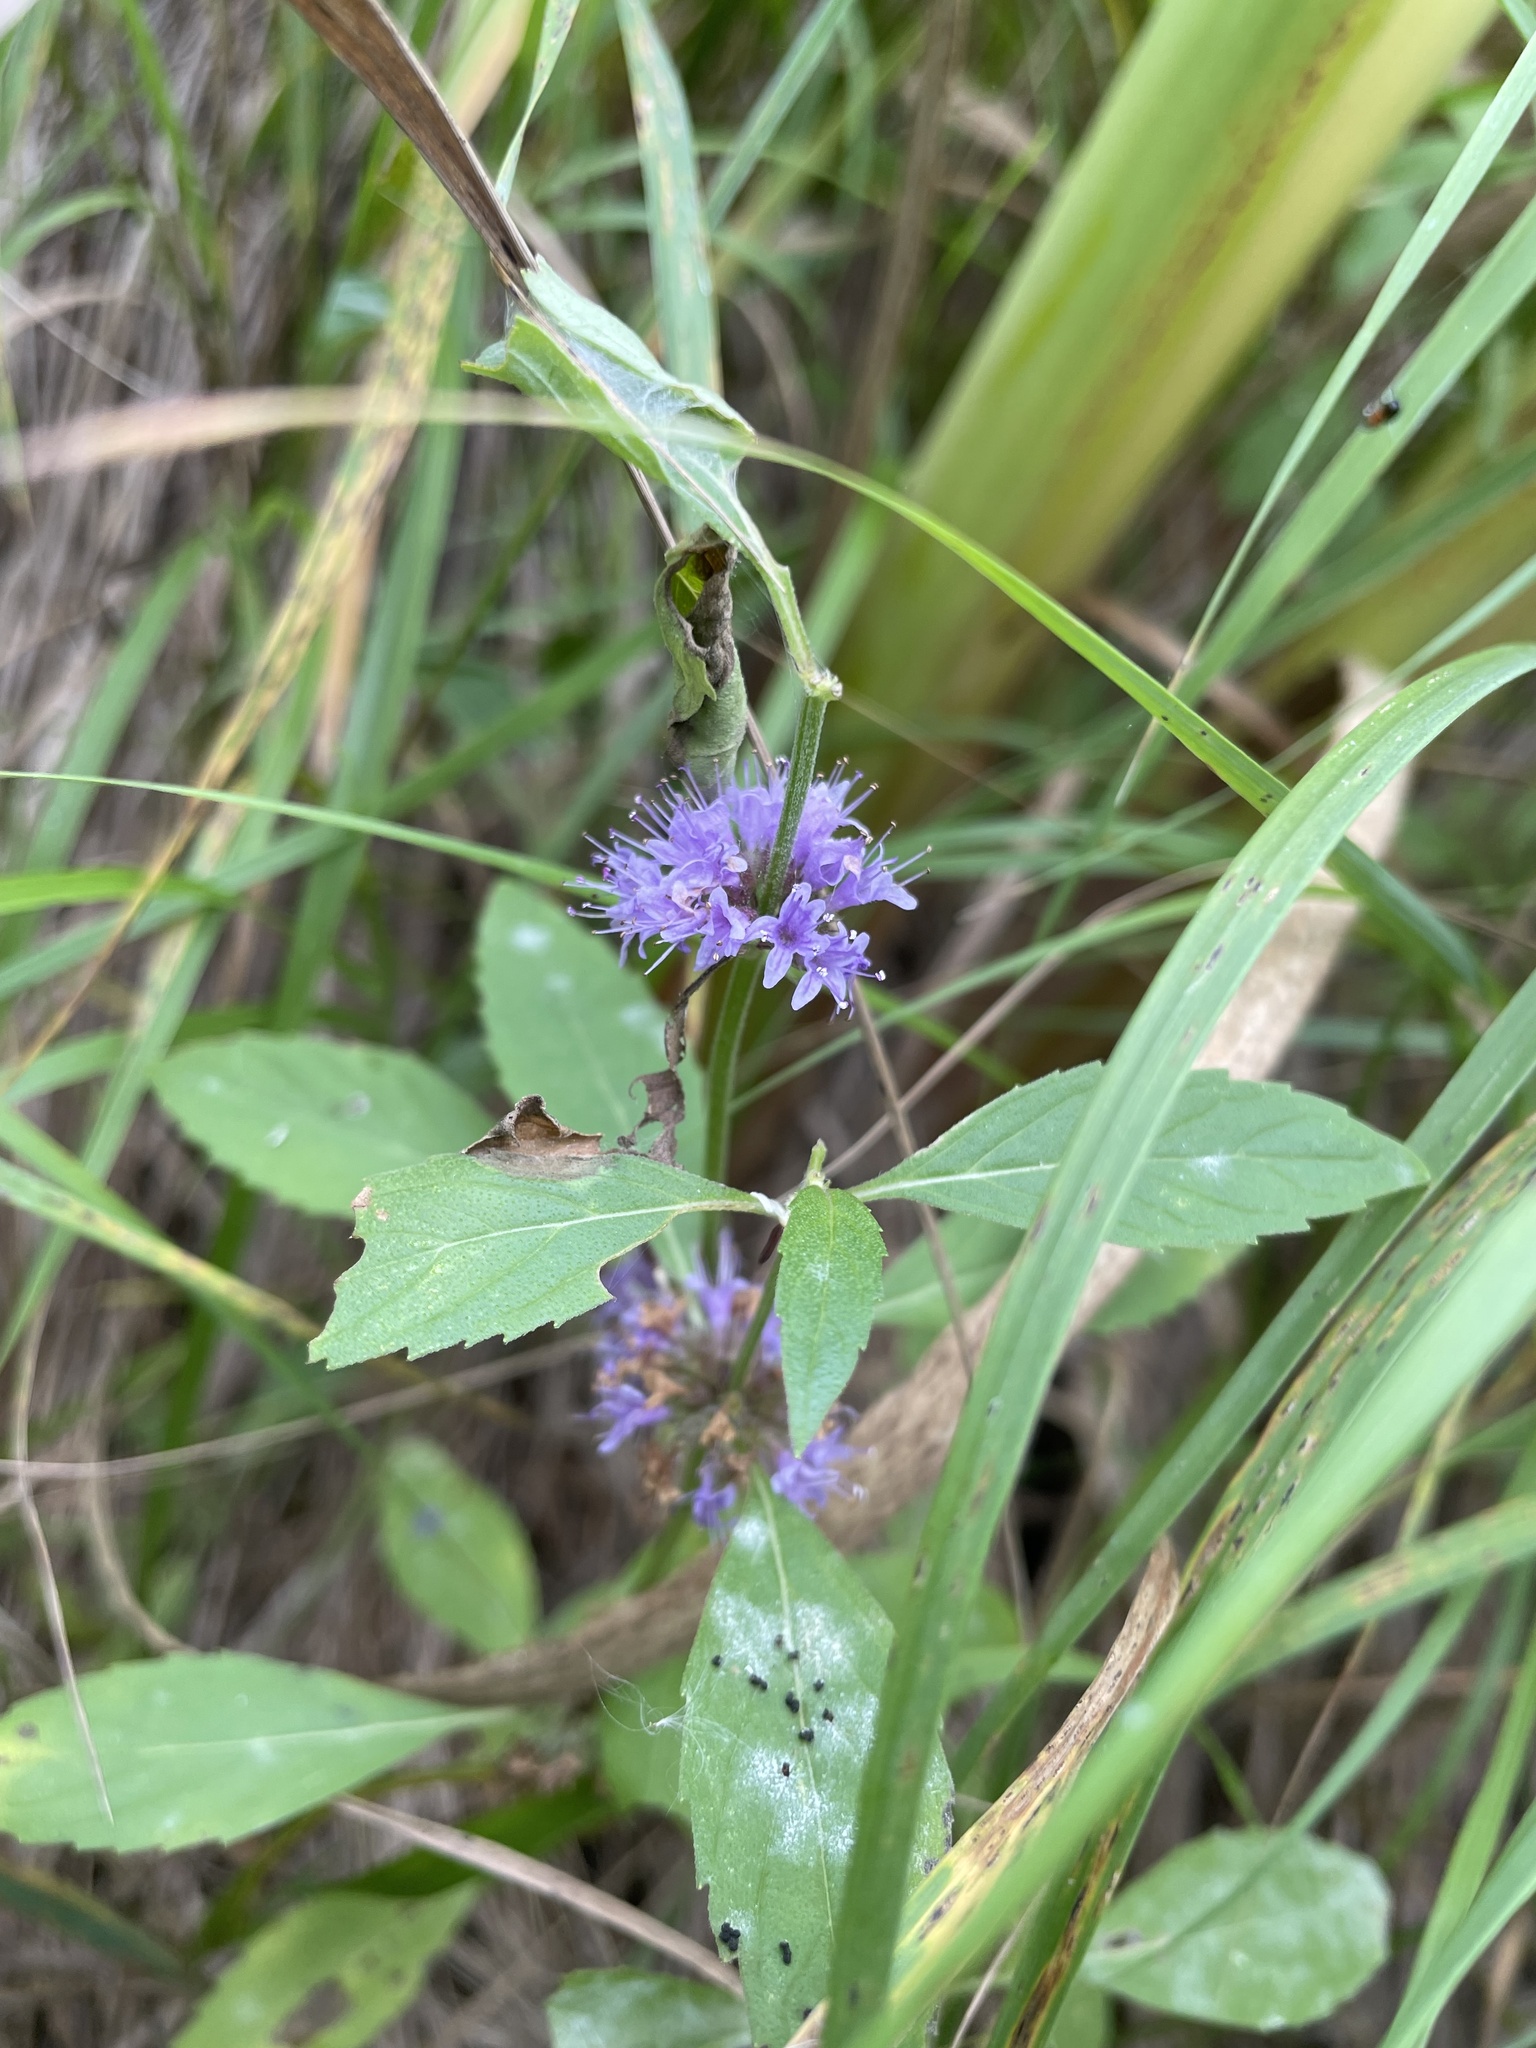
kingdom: Plantae
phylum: Tracheophyta
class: Magnoliopsida
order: Lamiales
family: Lamiaceae
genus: Mentha
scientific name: Mentha canadensis
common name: American corn mint
